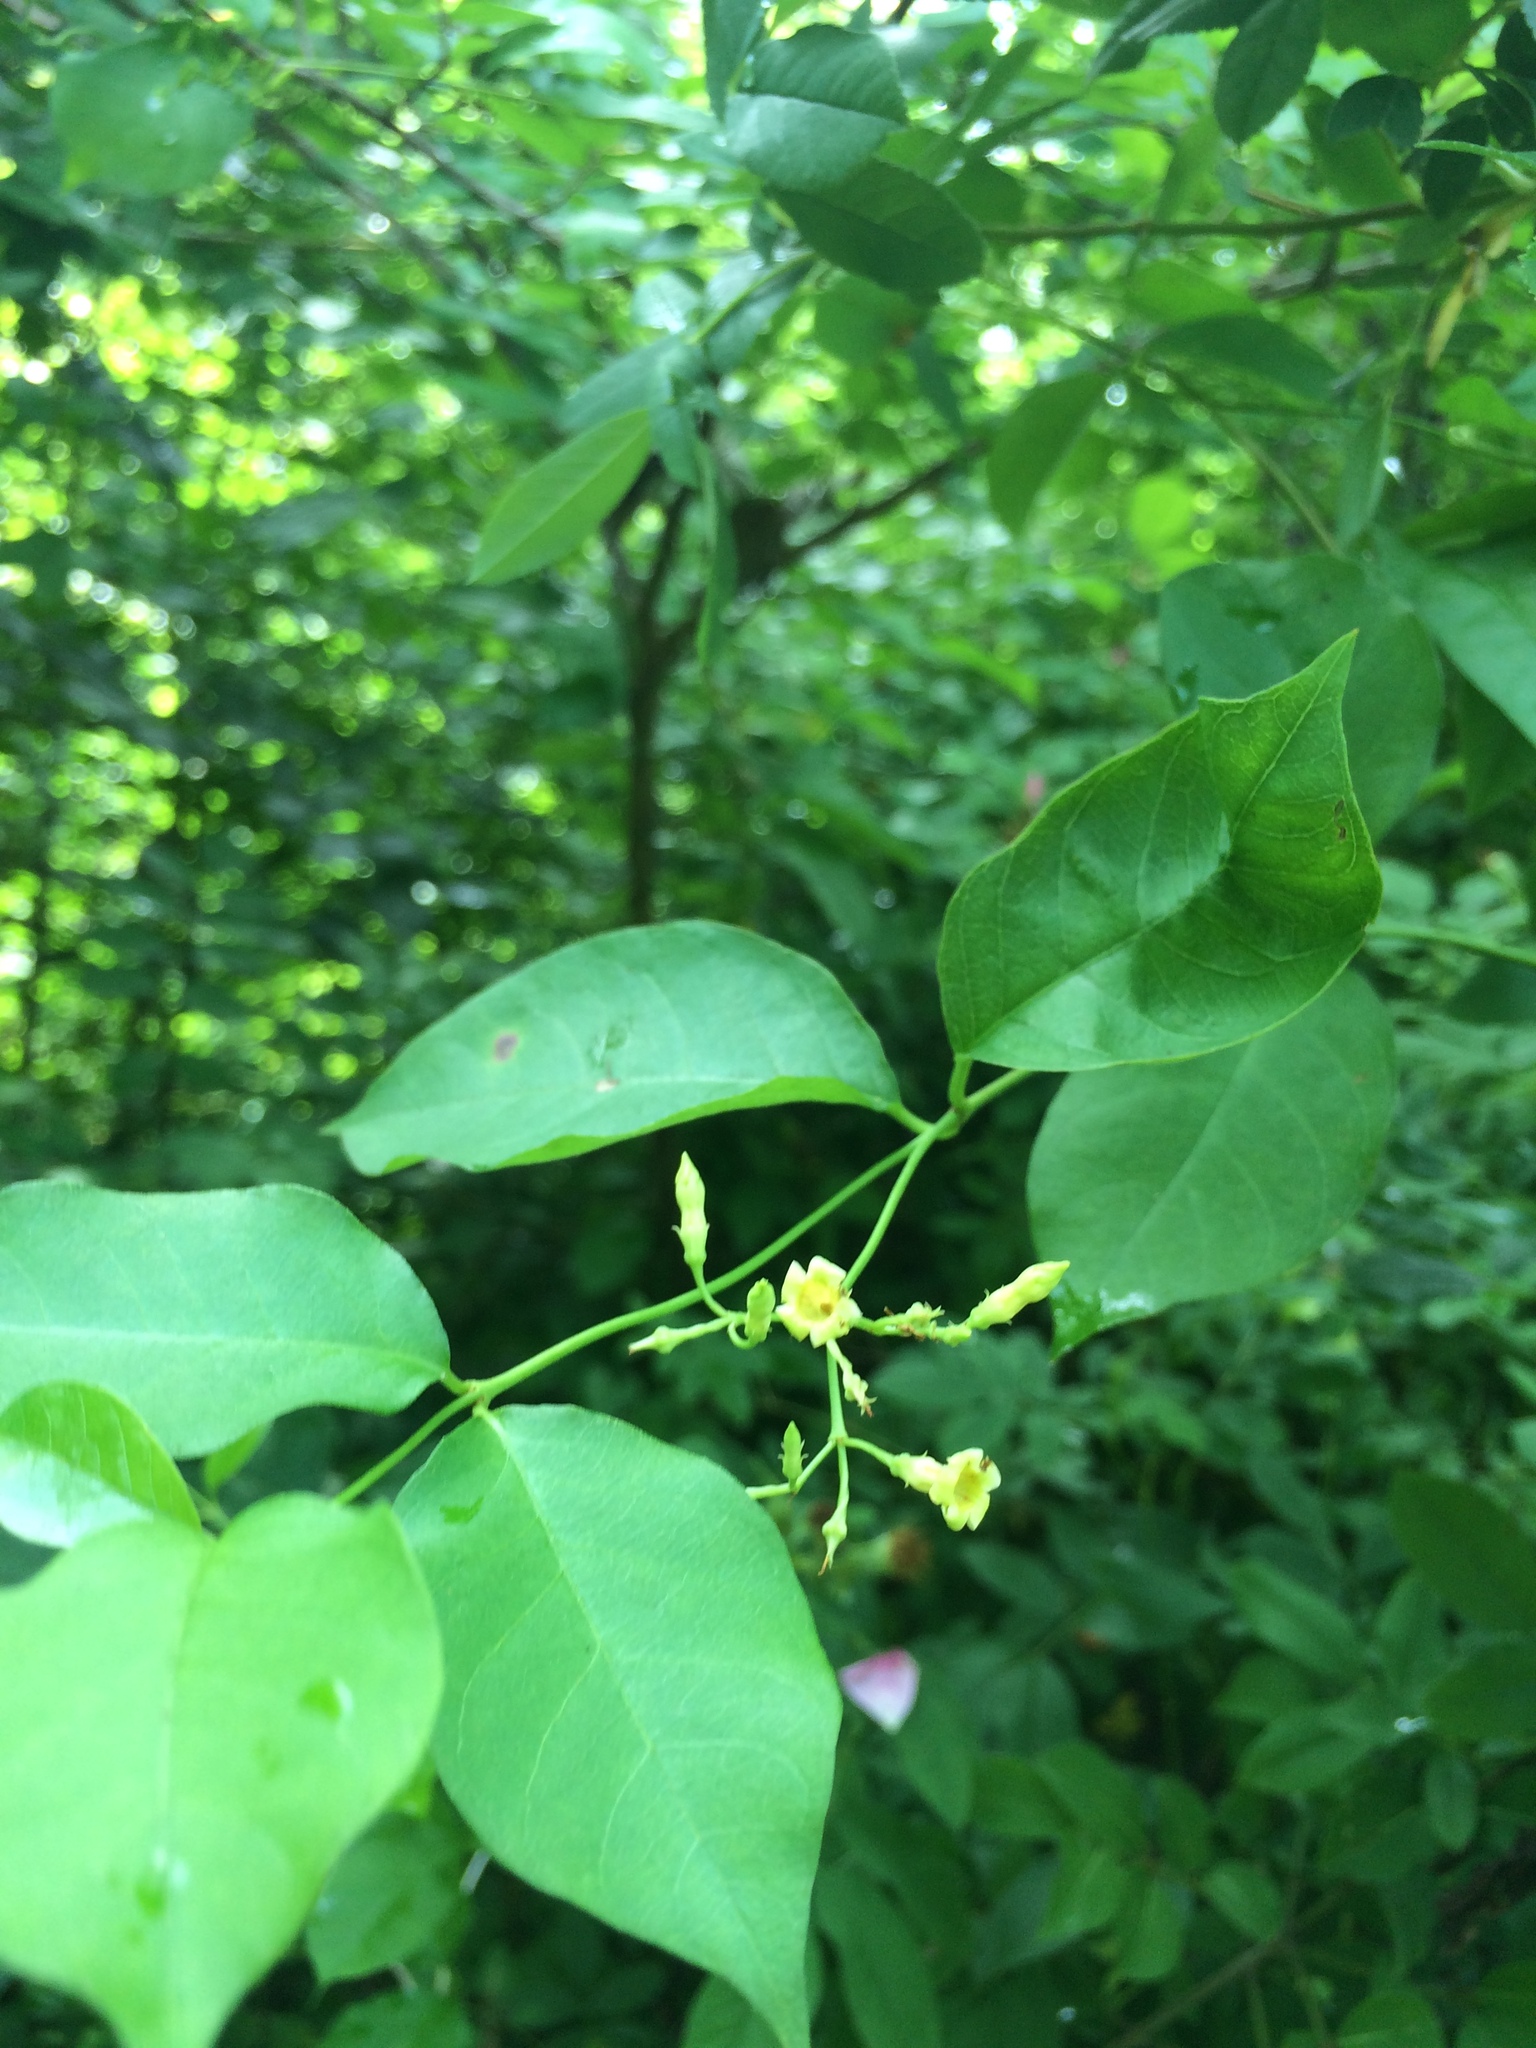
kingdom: Plantae
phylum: Tracheophyta
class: Magnoliopsida
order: Gentianales
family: Apocynaceae
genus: Thyrsanthella
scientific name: Thyrsanthella difformis
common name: Climbing dogbane
